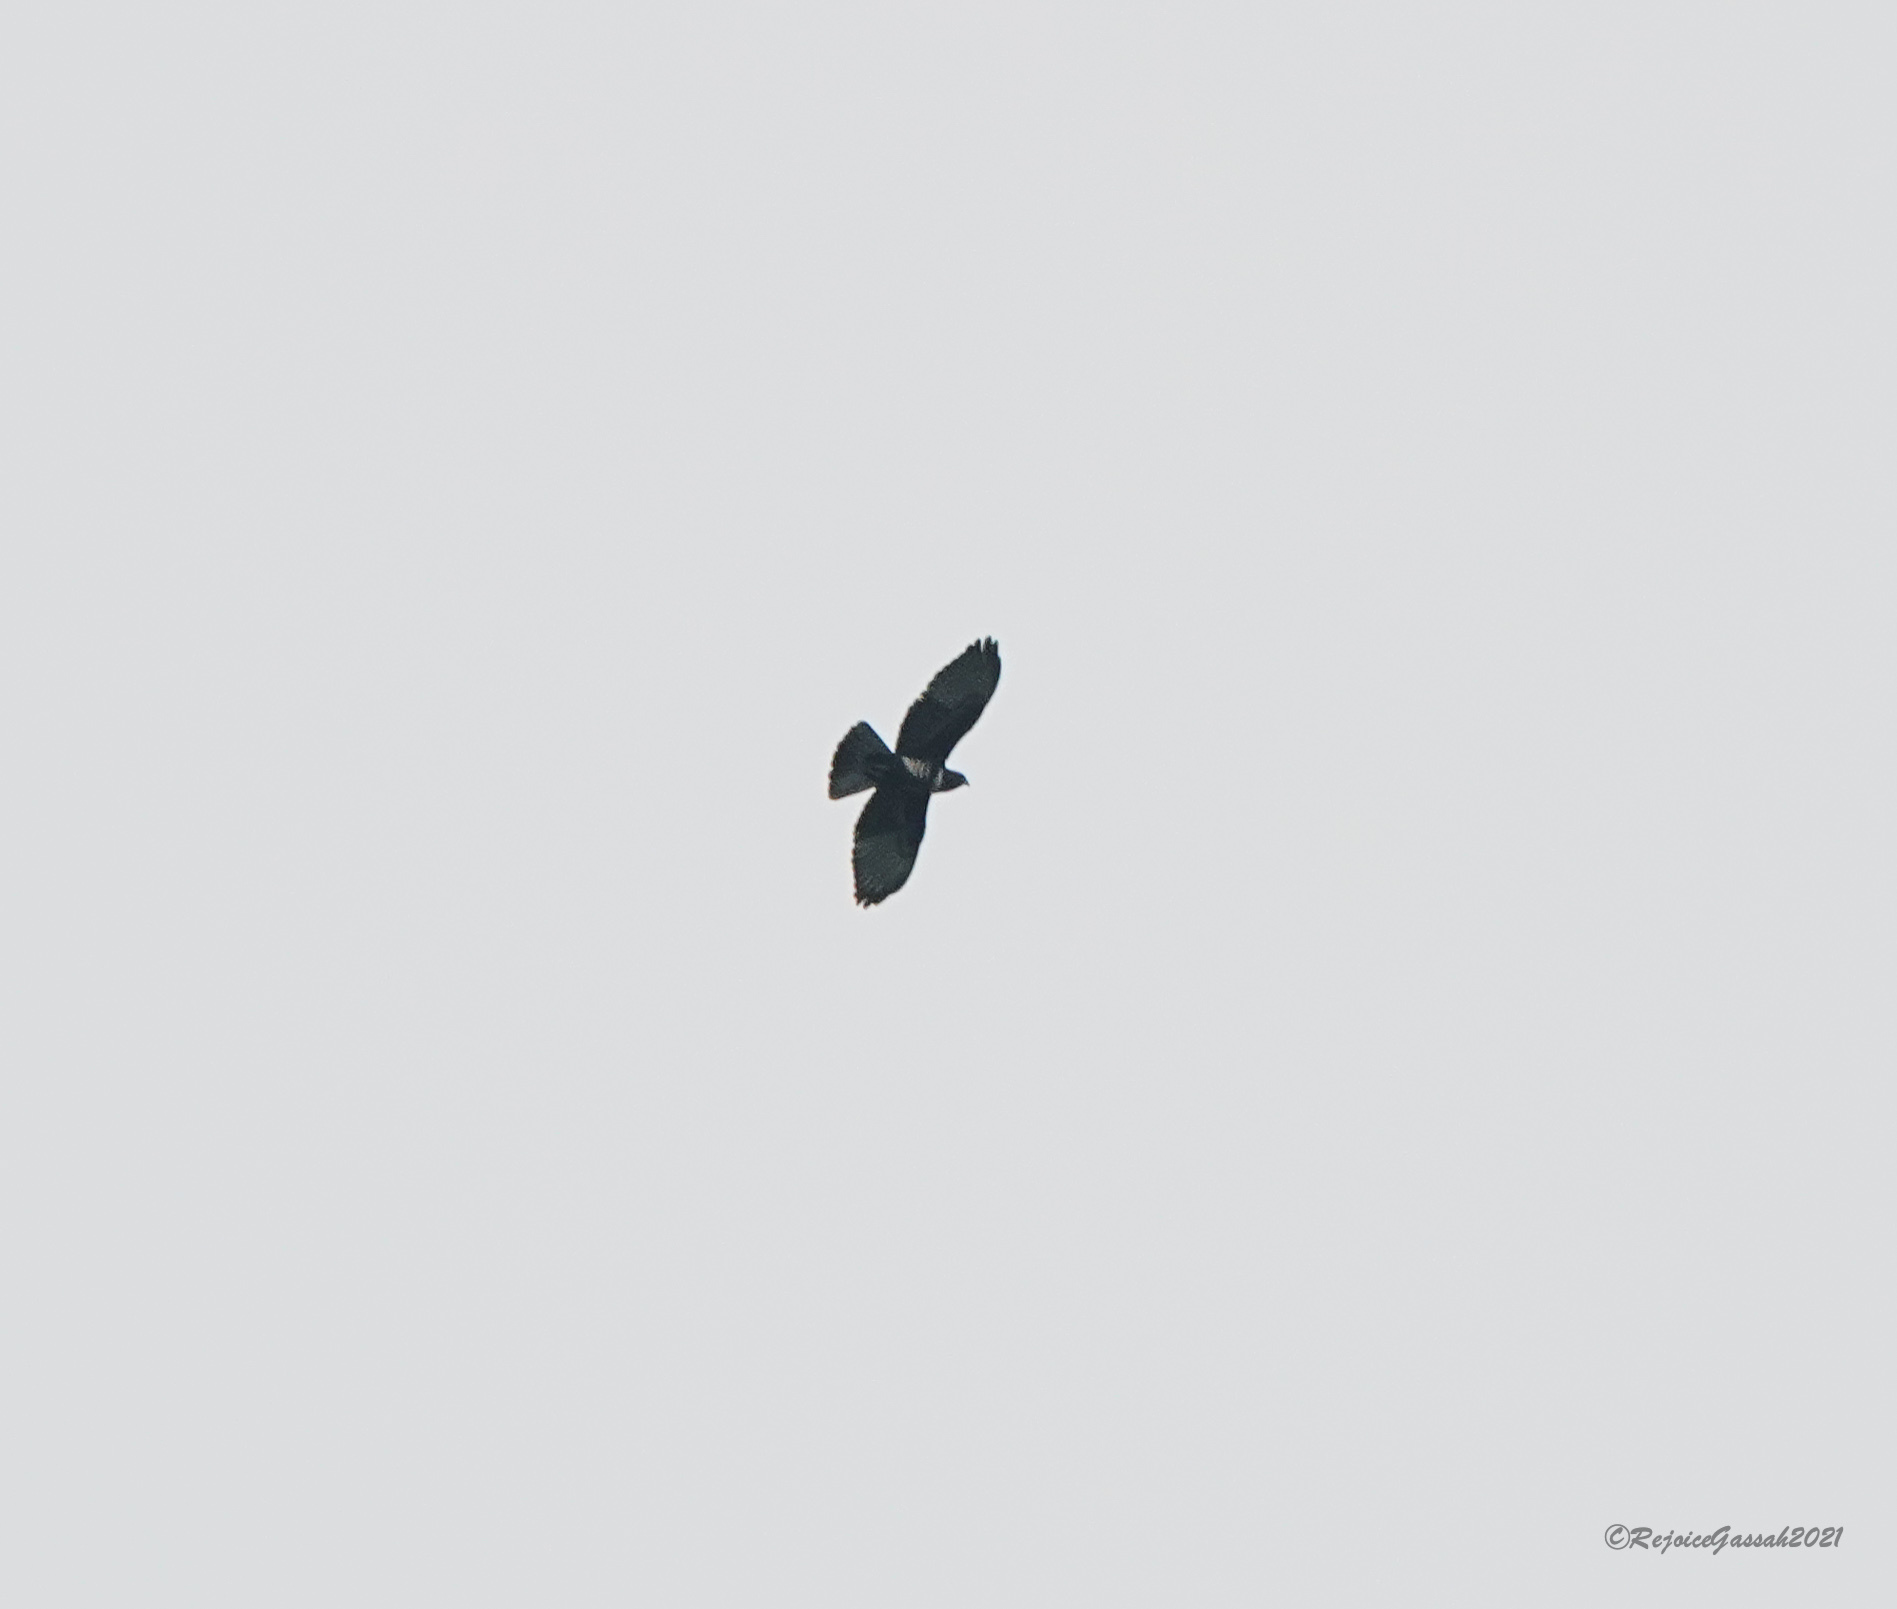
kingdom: Animalia
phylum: Chordata
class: Aves
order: Accipitriformes
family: Accipitridae
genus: Aviceda
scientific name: Aviceda leuphotes
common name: Black baza
